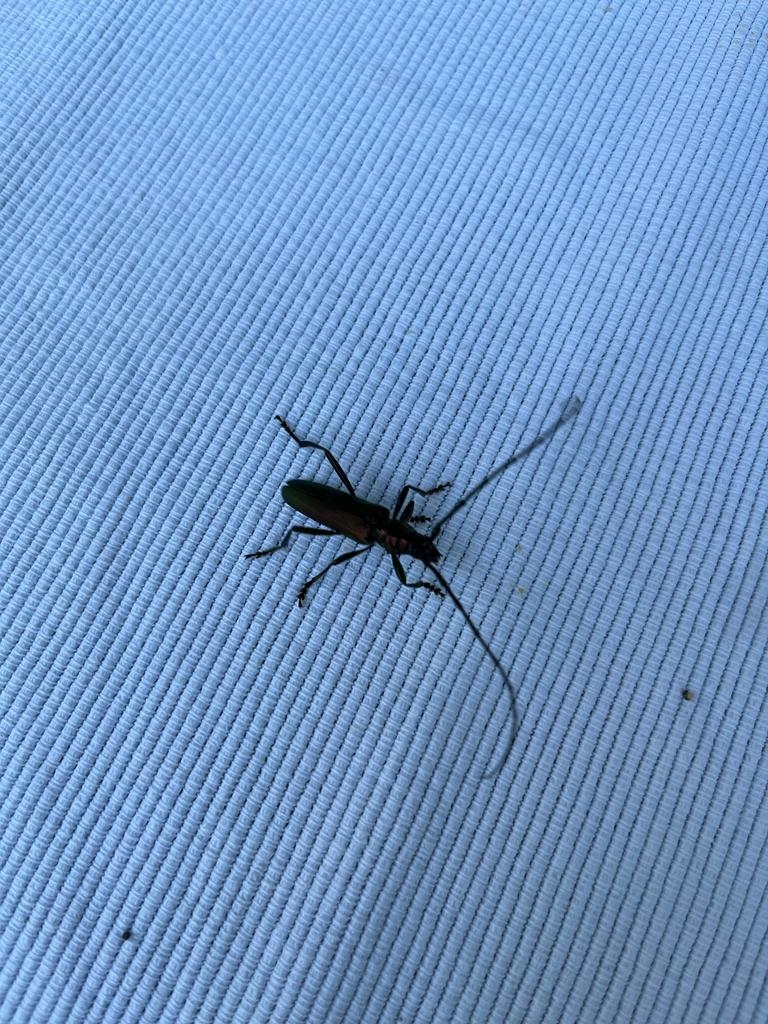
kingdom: Animalia
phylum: Arthropoda
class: Insecta
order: Coleoptera
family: Cerambycidae
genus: Aromia
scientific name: Aromia moschata
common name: Musk beetle
